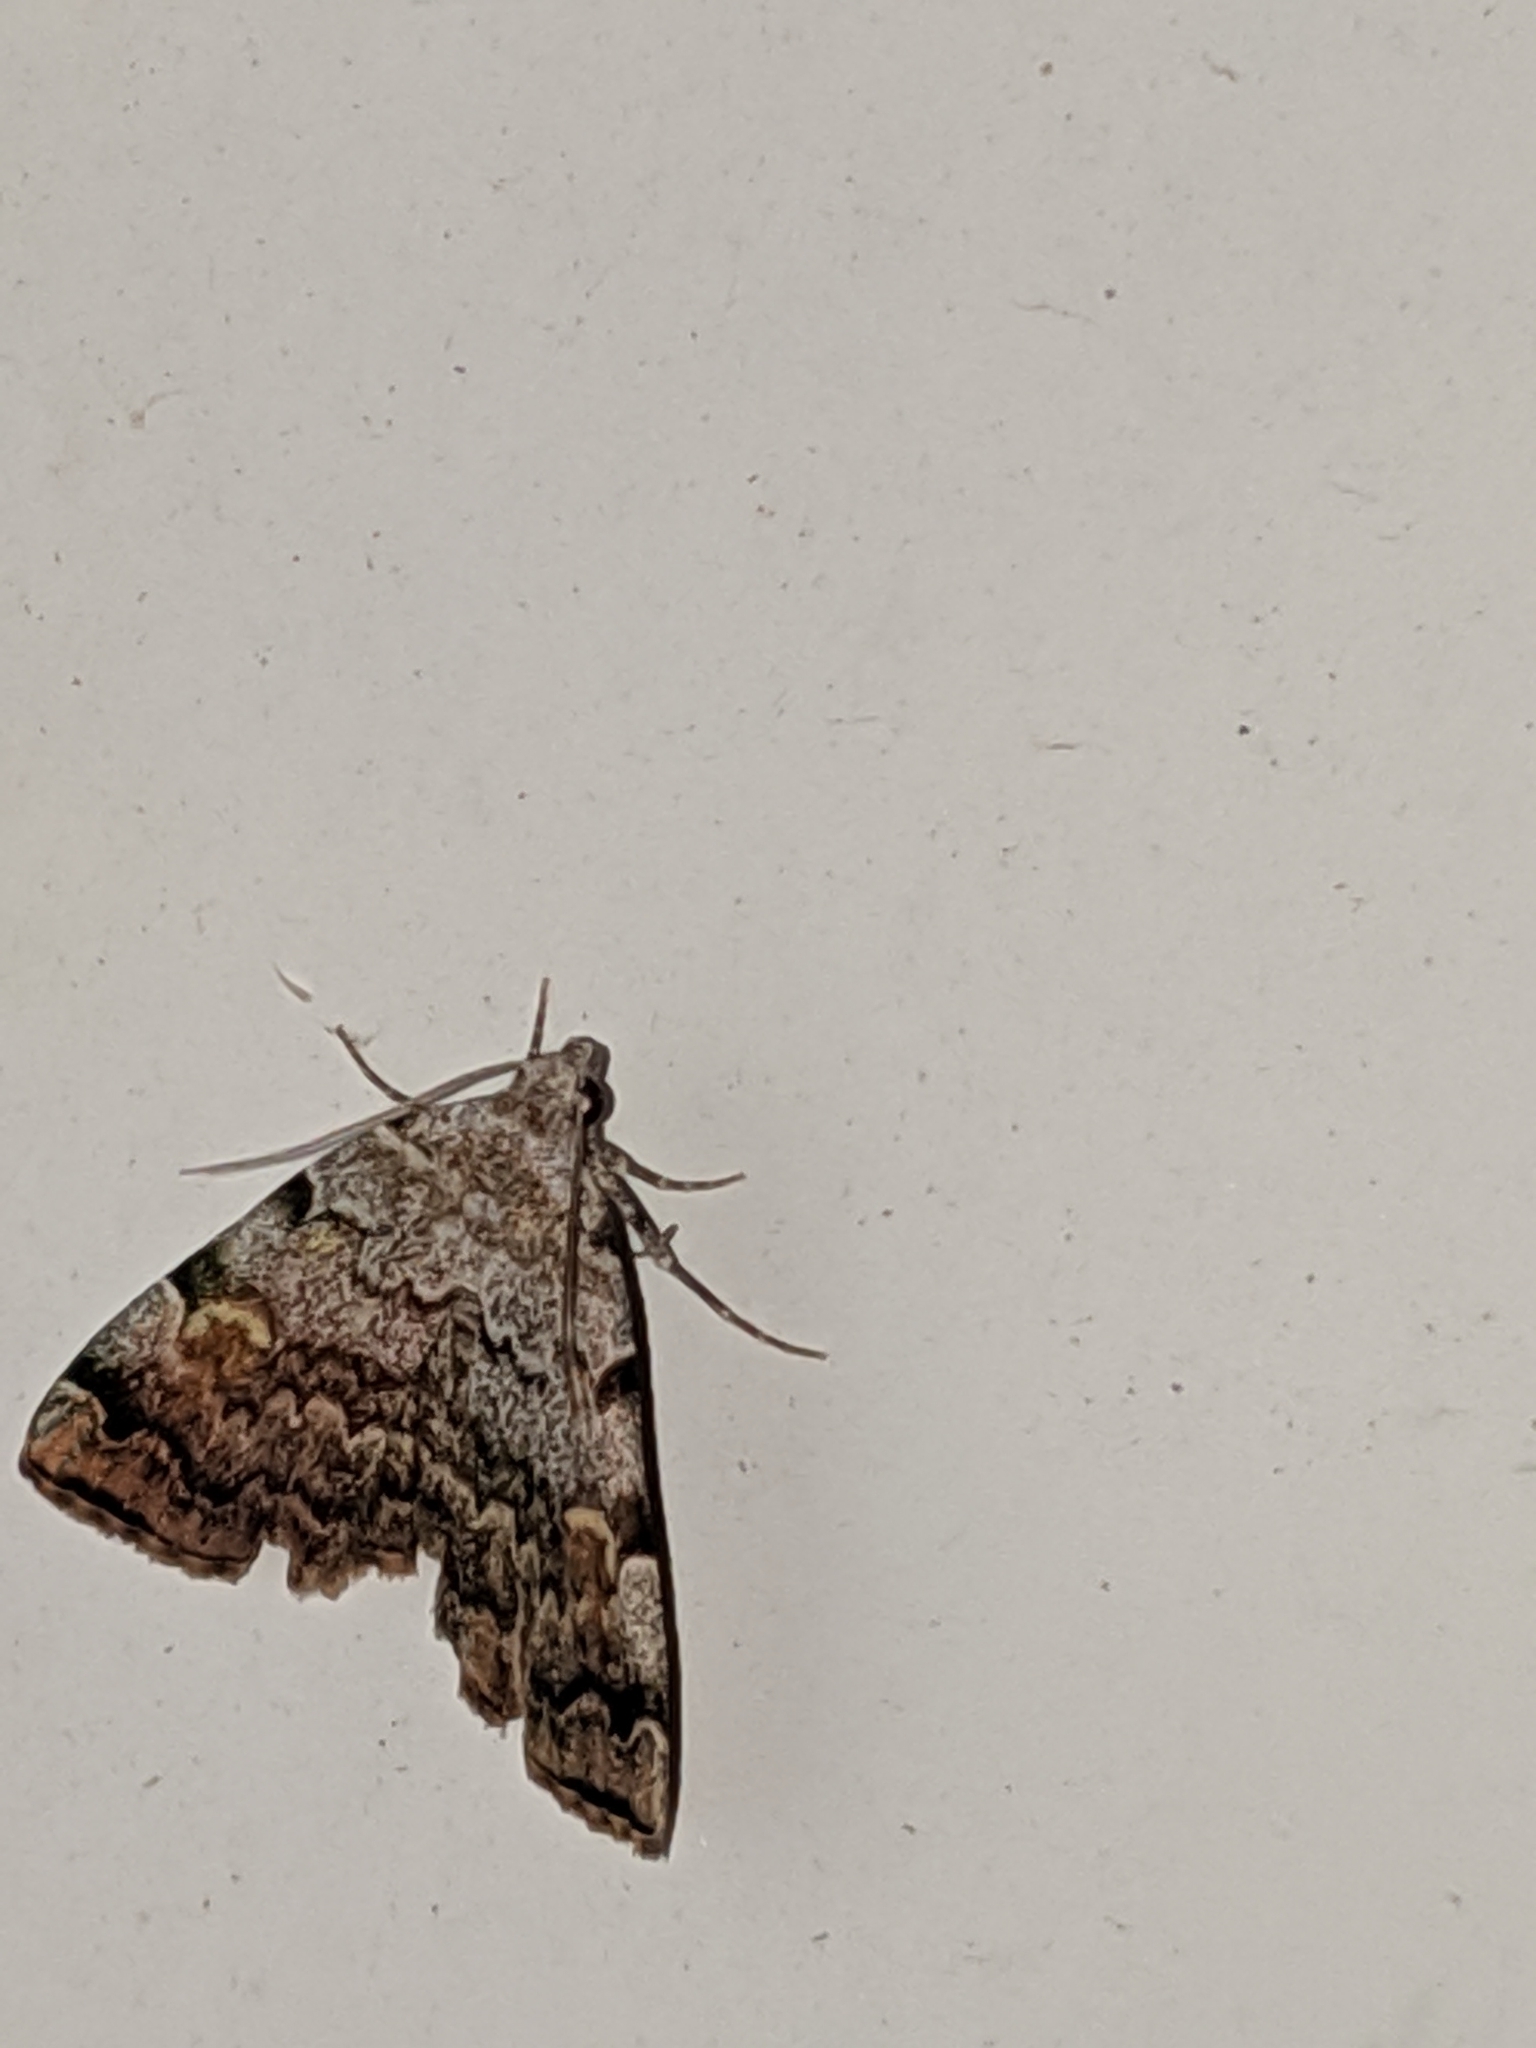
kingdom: Animalia
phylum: Arthropoda
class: Insecta
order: Lepidoptera
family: Erebidae
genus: Idia
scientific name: Idia americalis
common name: American idia moth
